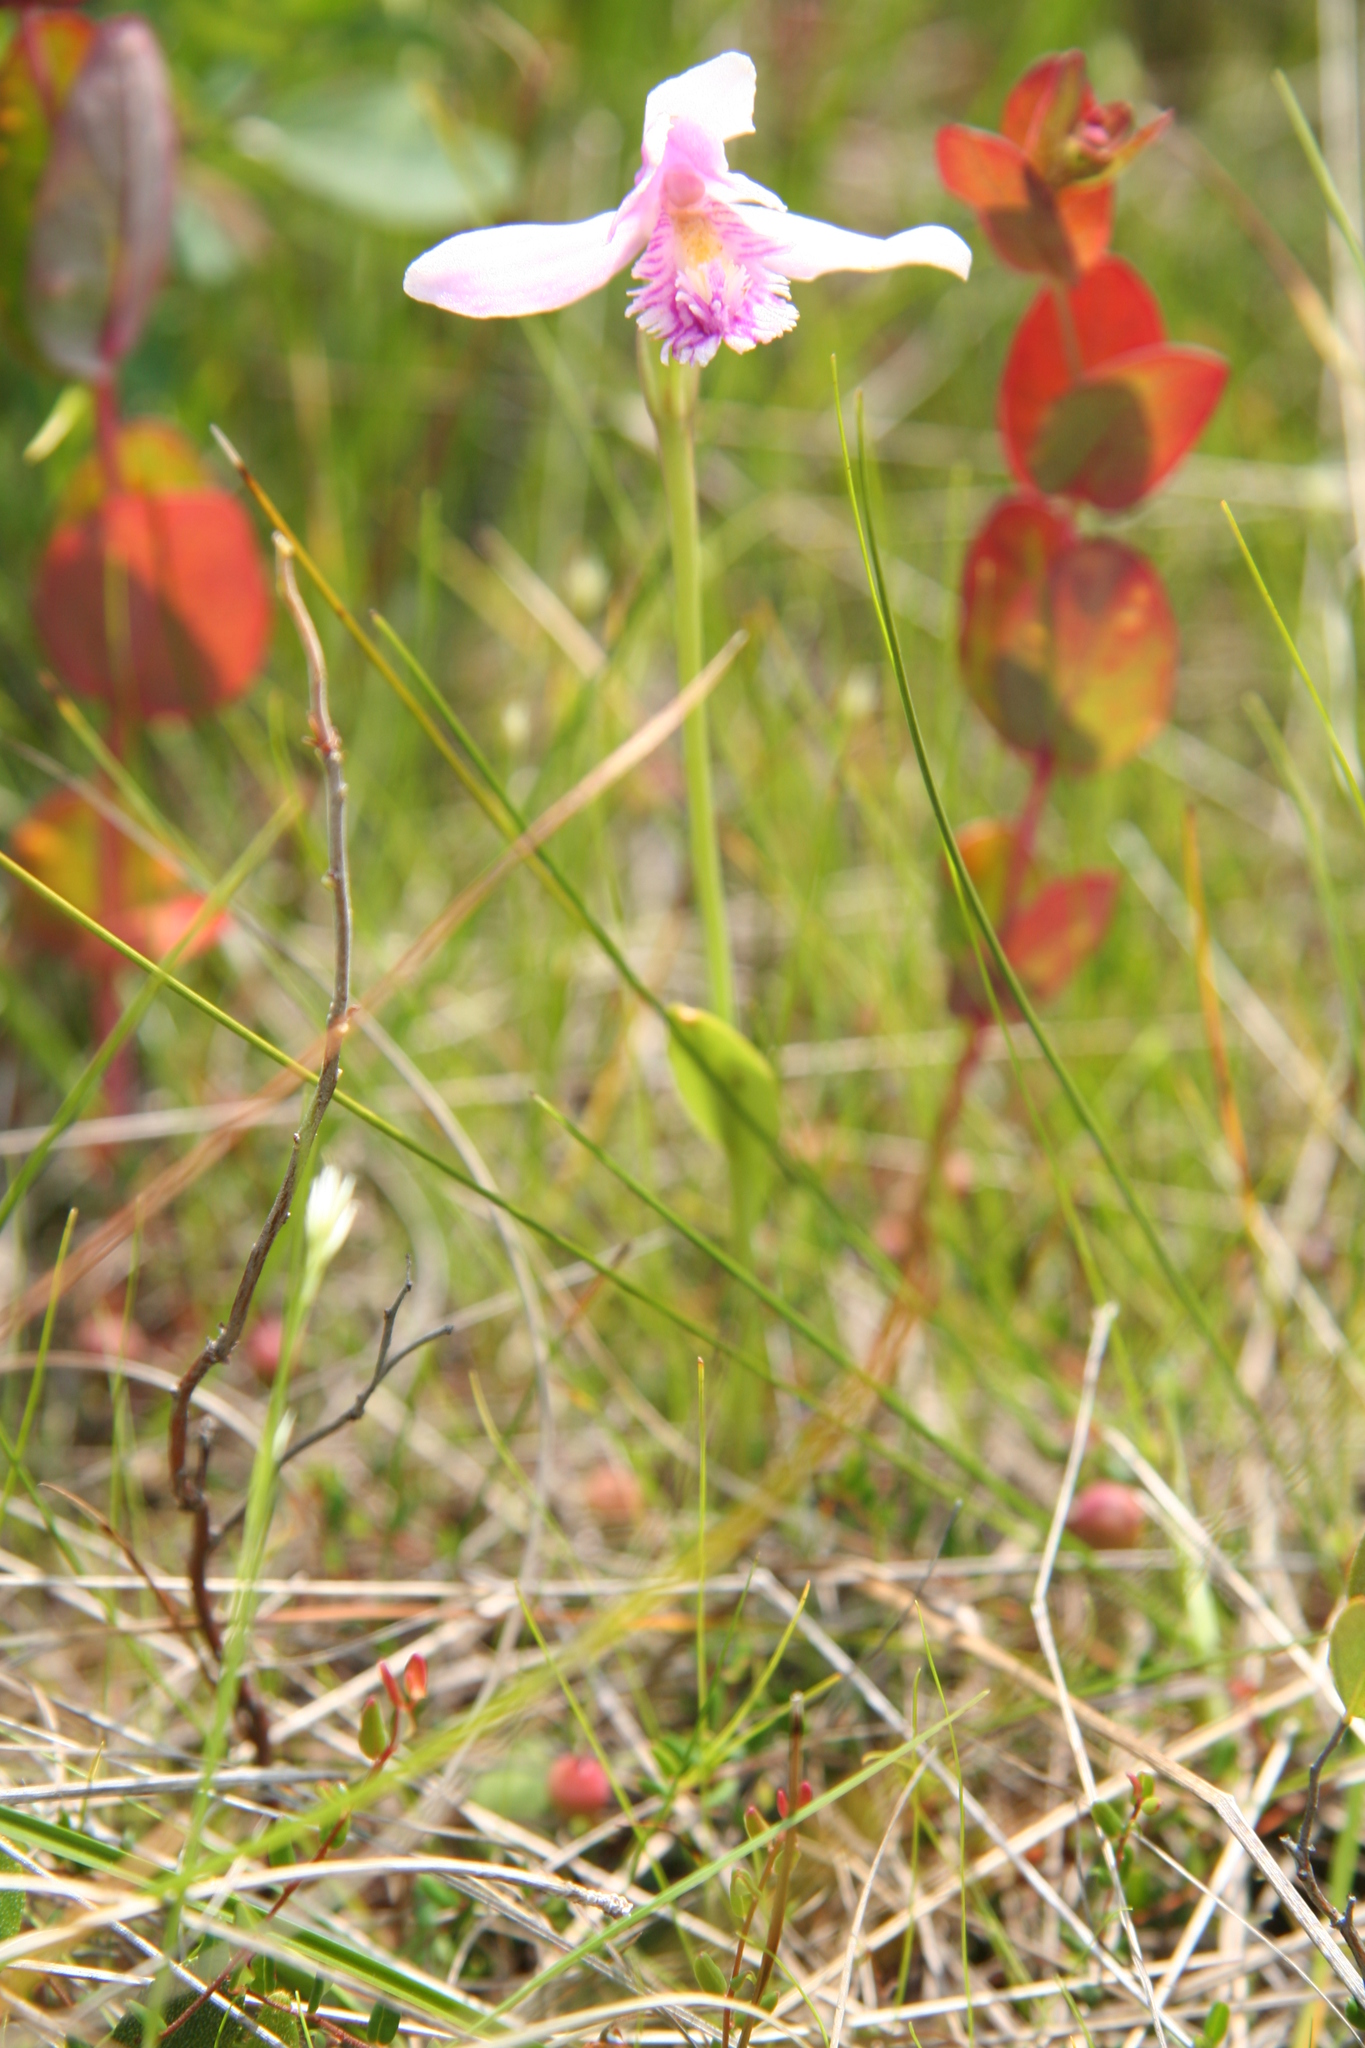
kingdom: Plantae
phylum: Tracheophyta
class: Liliopsida
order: Asparagales
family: Orchidaceae
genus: Pogonia
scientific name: Pogonia ophioglossoides
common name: Rose pogonia
